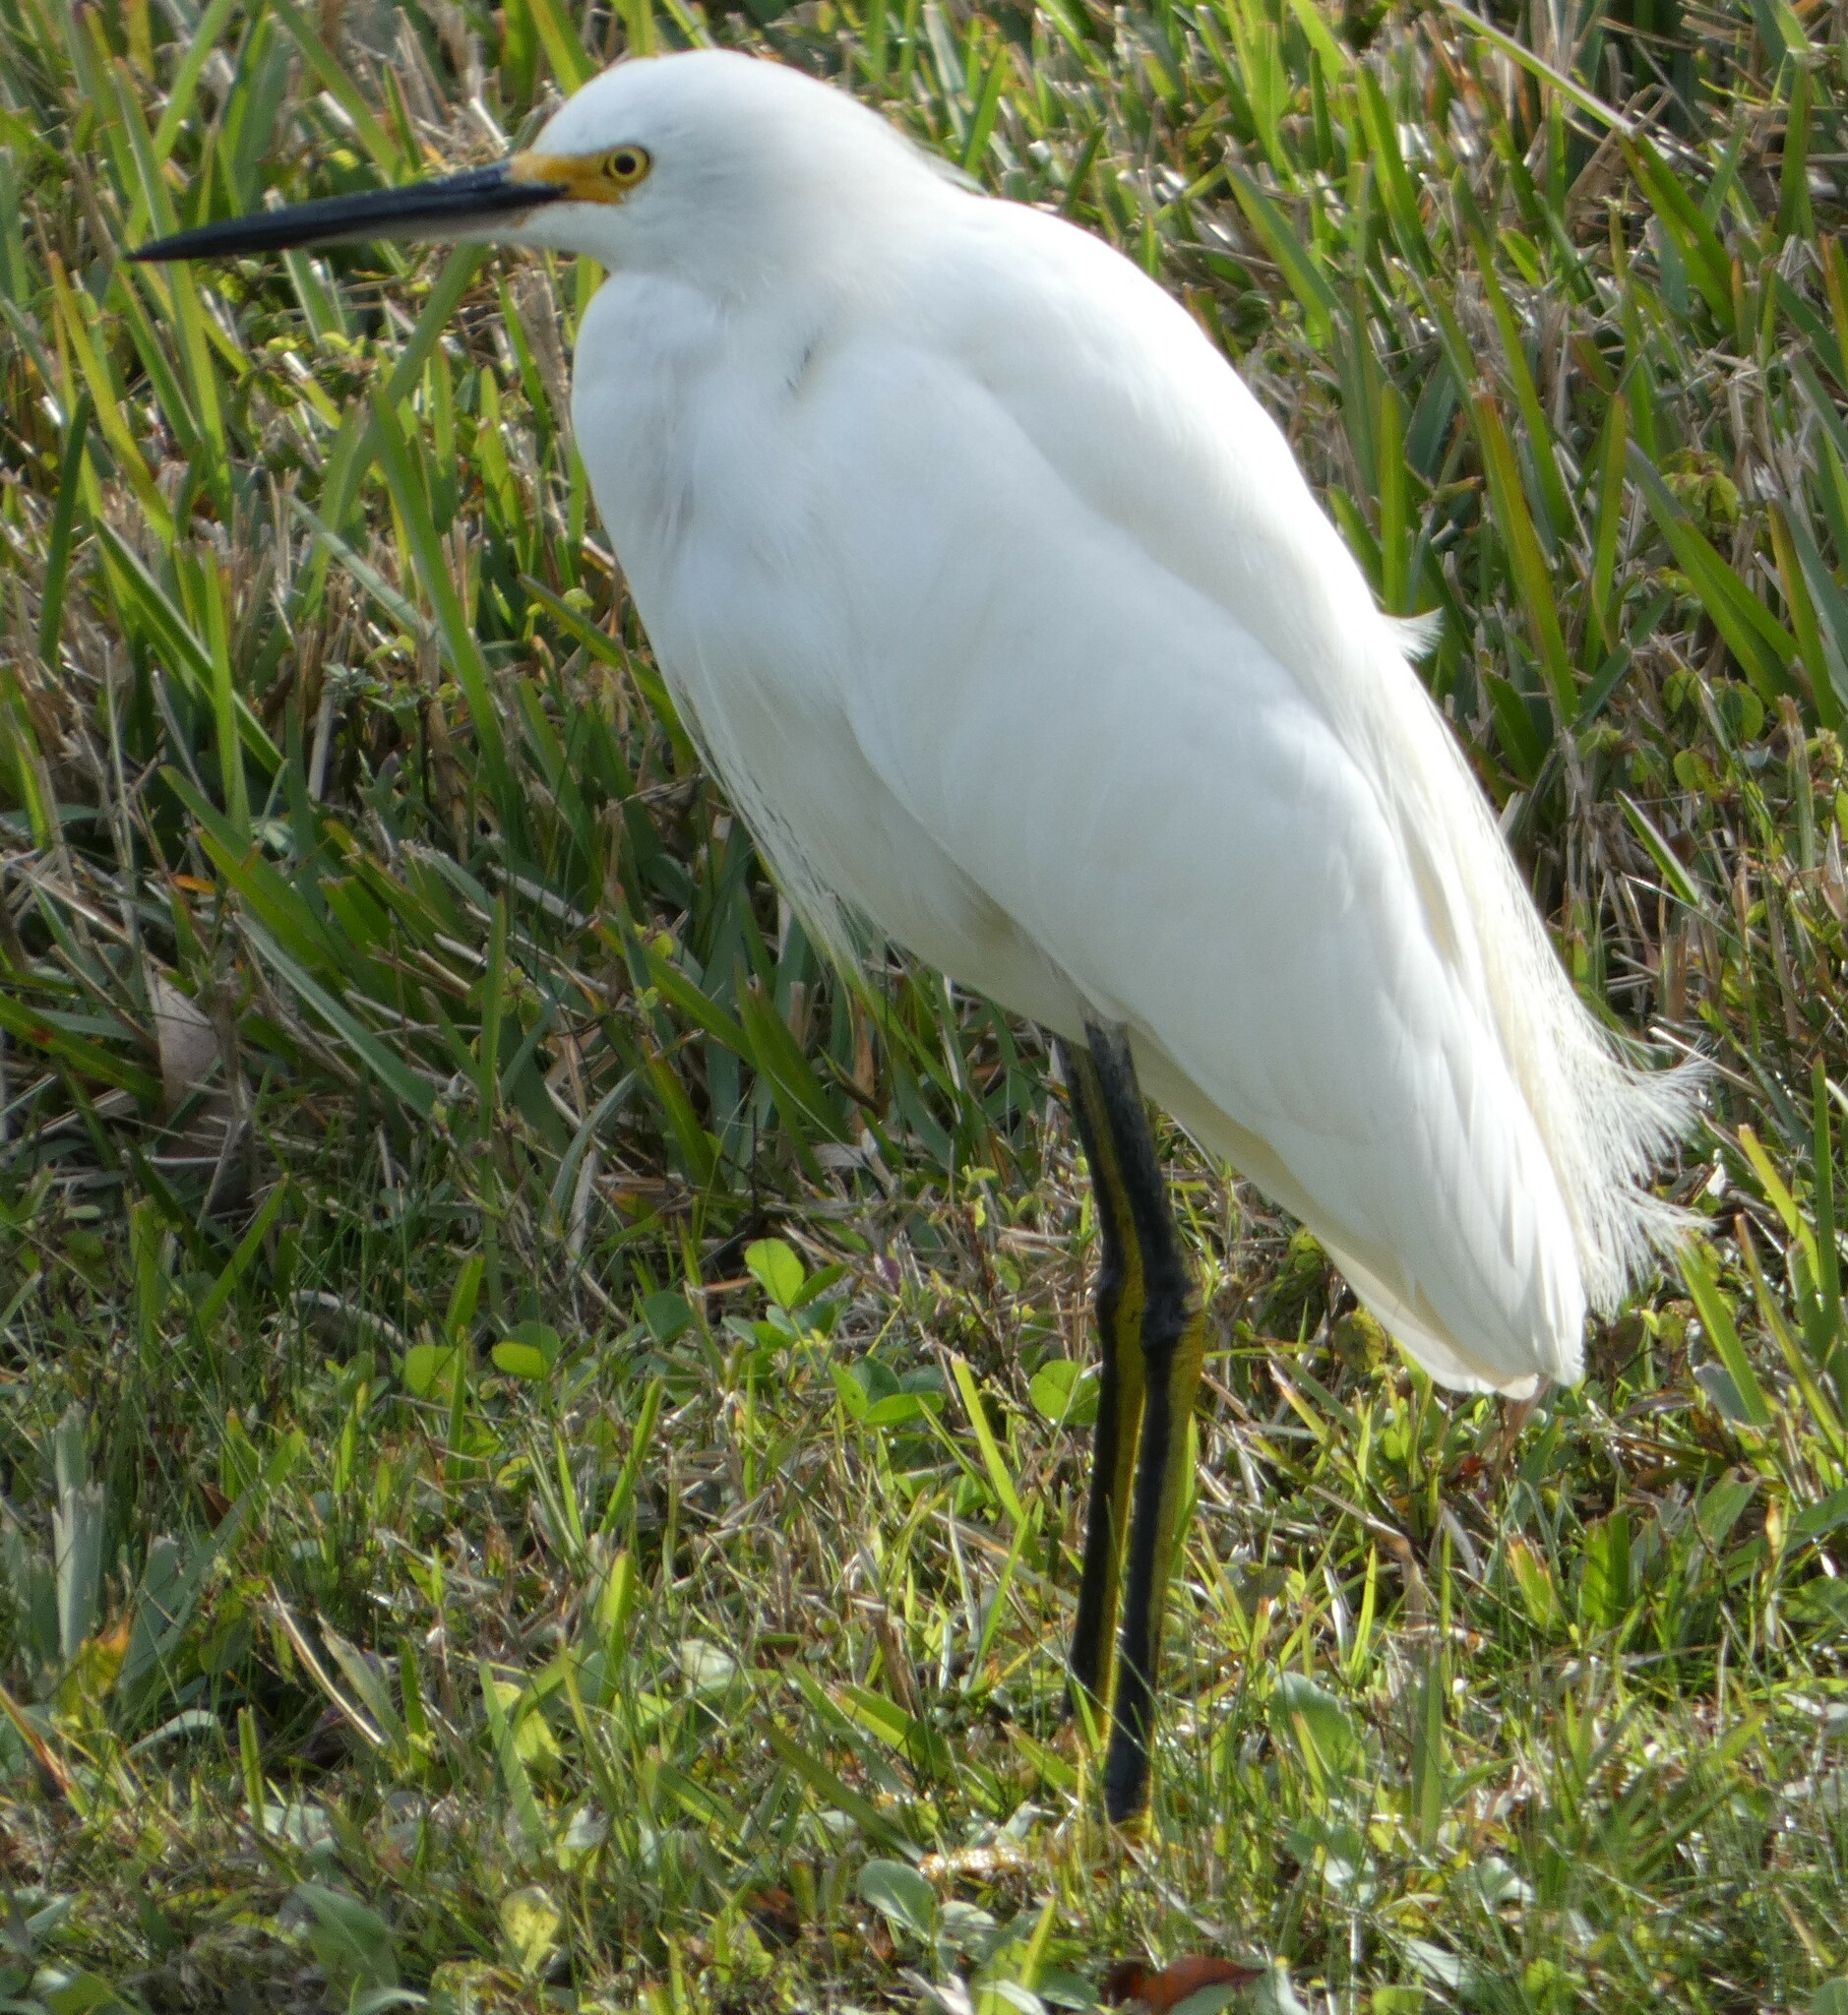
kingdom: Animalia
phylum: Chordata
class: Aves
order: Pelecaniformes
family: Ardeidae
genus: Egretta
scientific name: Egretta thula
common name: Snowy egret
